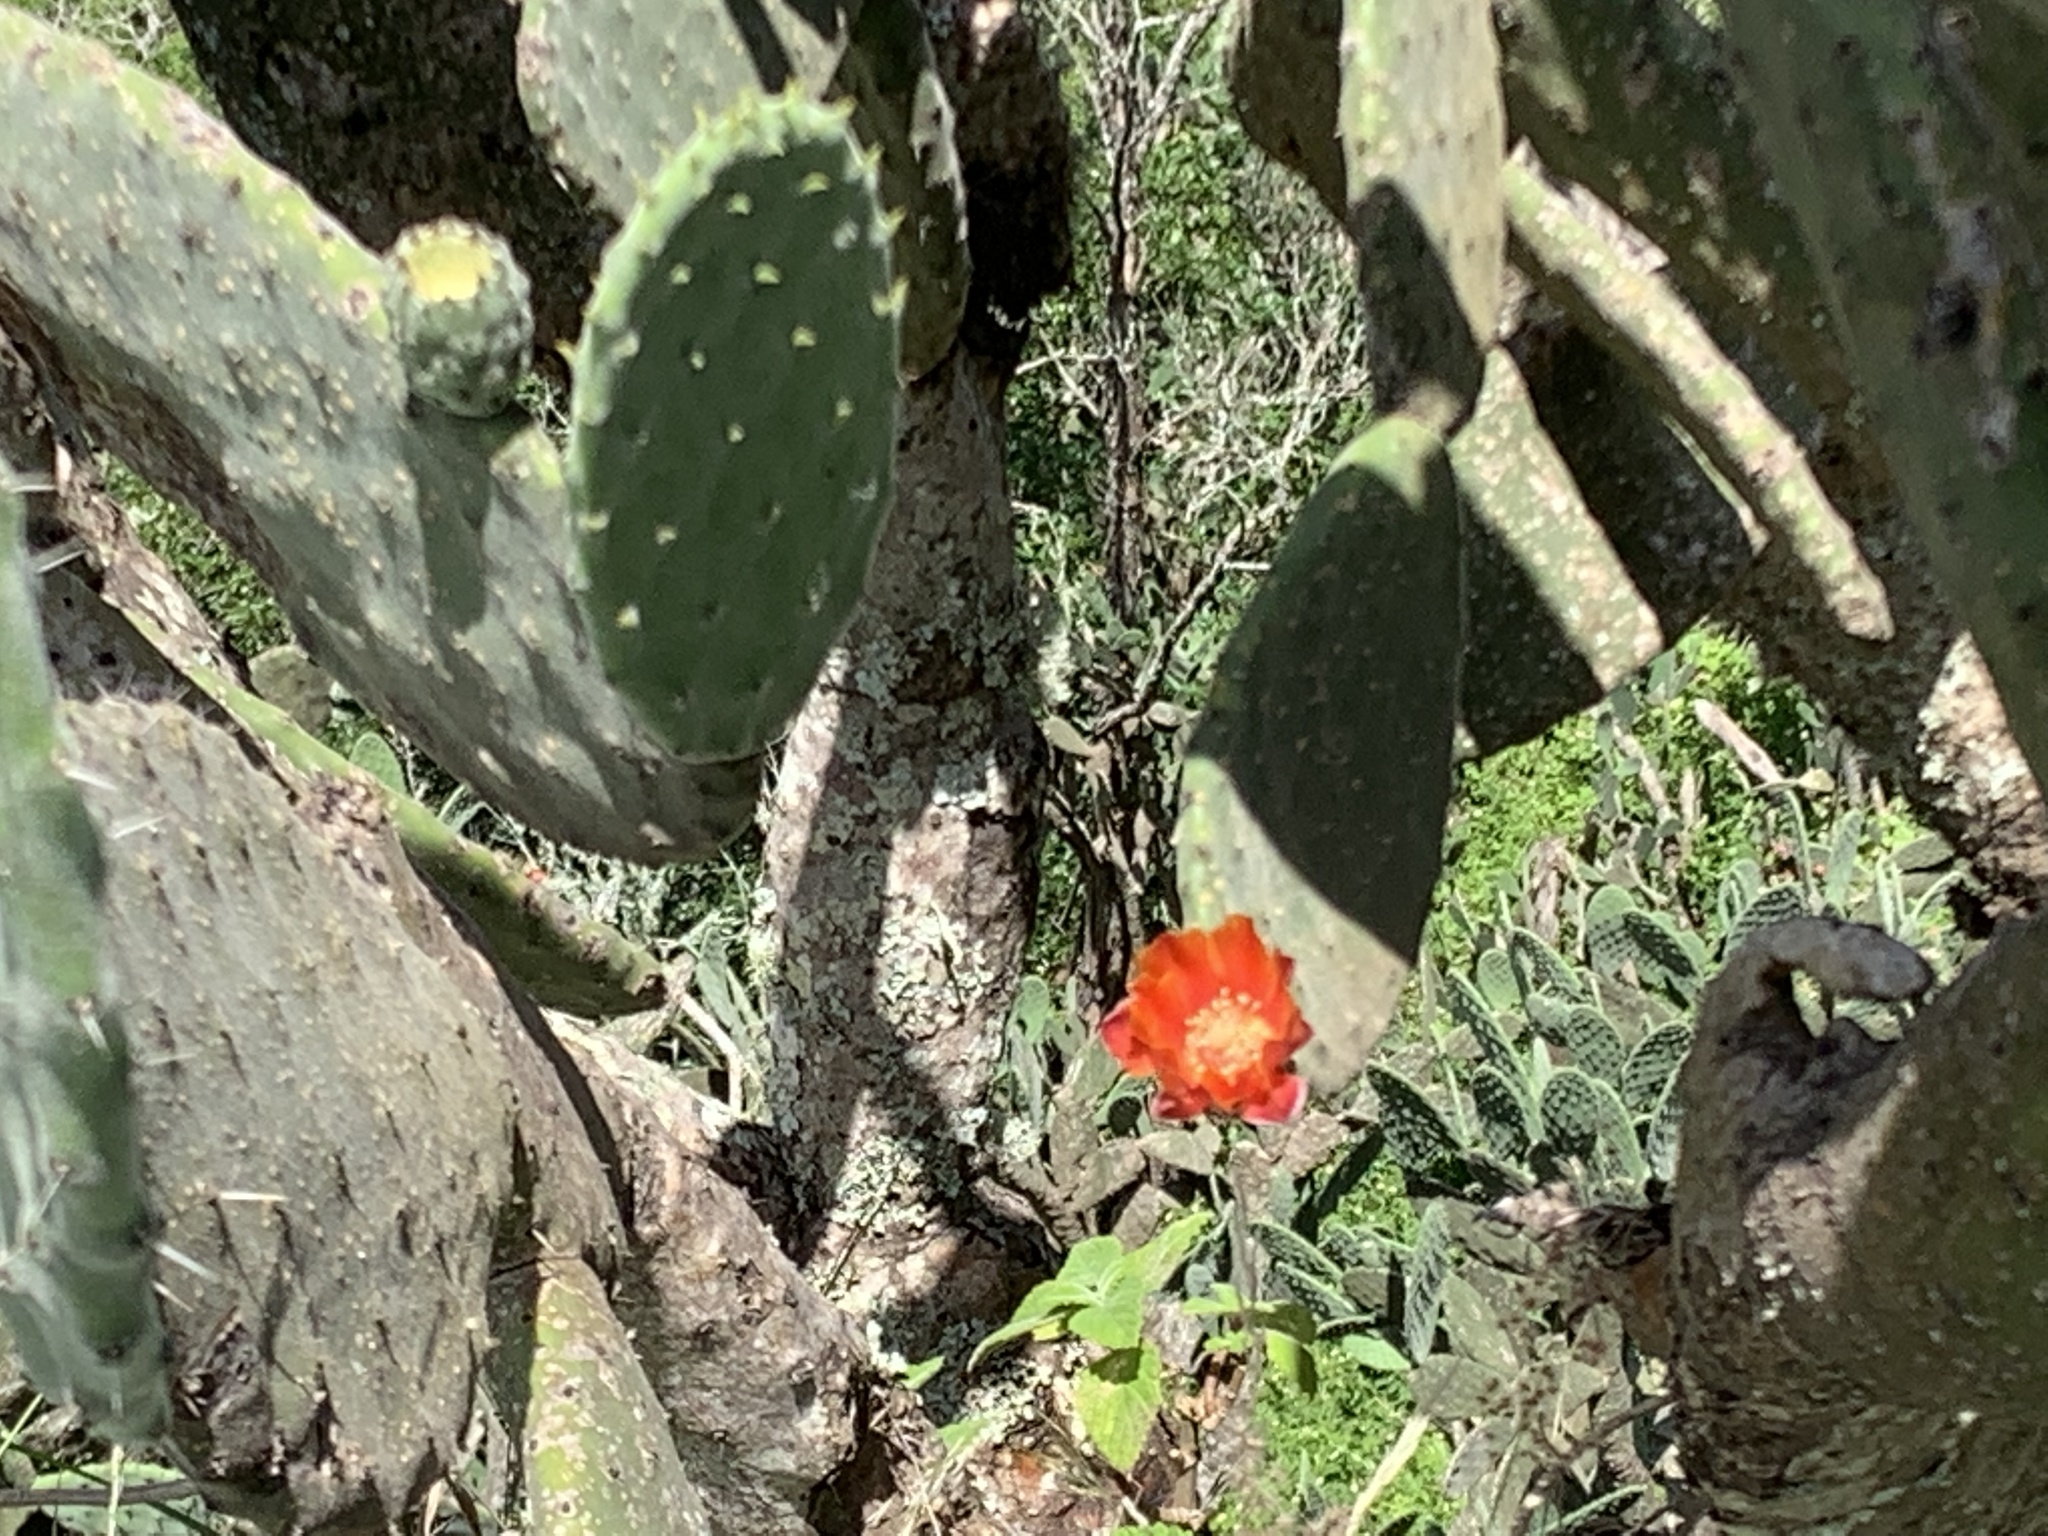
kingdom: Plantae
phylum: Tracheophyta
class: Magnoliopsida
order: Caryophyllales
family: Cactaceae
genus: Opuntia
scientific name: Opuntia tomentosa
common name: Woollyjoint pricklypear
